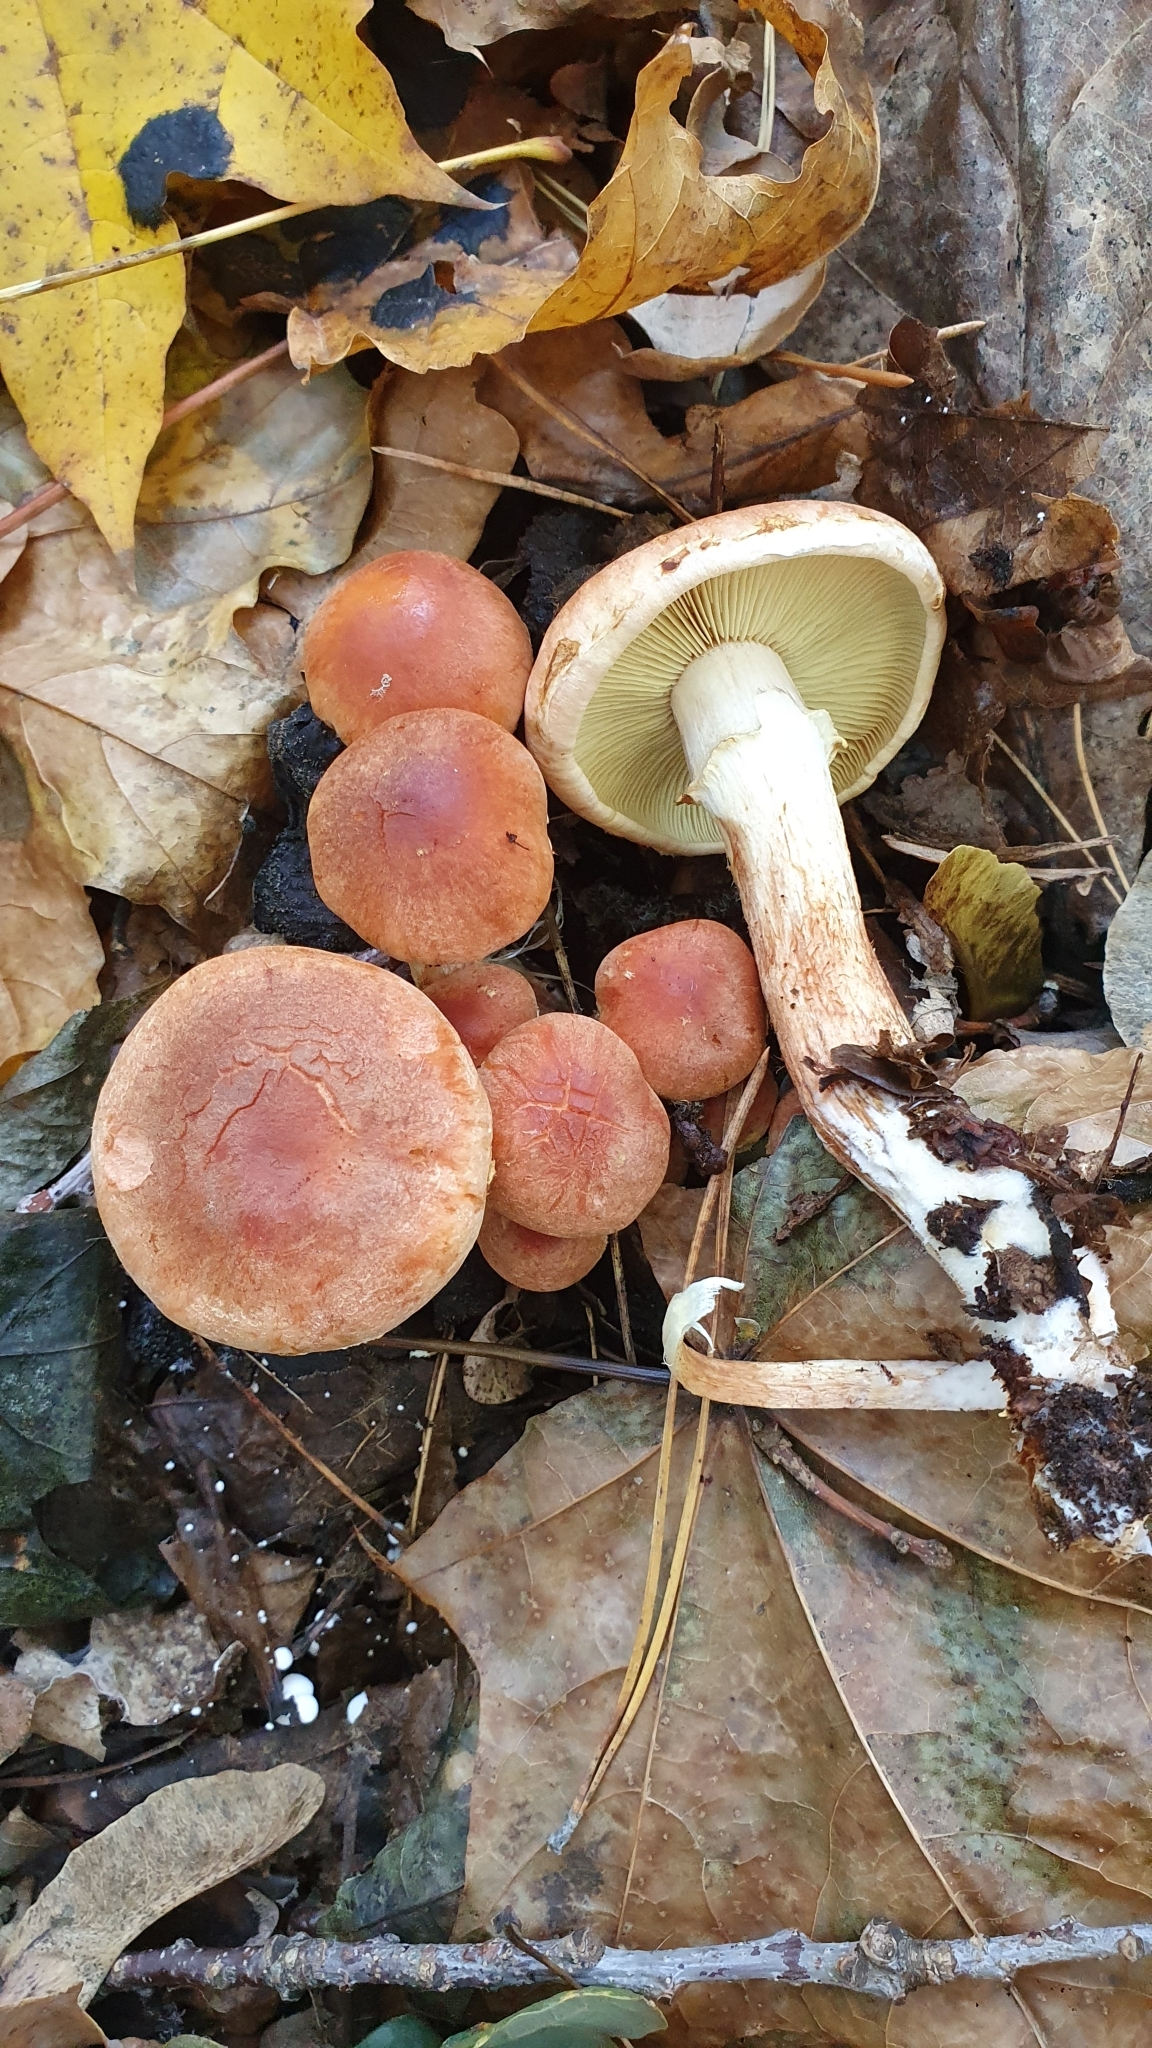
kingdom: Fungi
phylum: Basidiomycota
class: Agaricomycetes
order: Agaricales
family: Strophariaceae
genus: Hypholoma
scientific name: Hypholoma lateritium
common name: Brick caps
